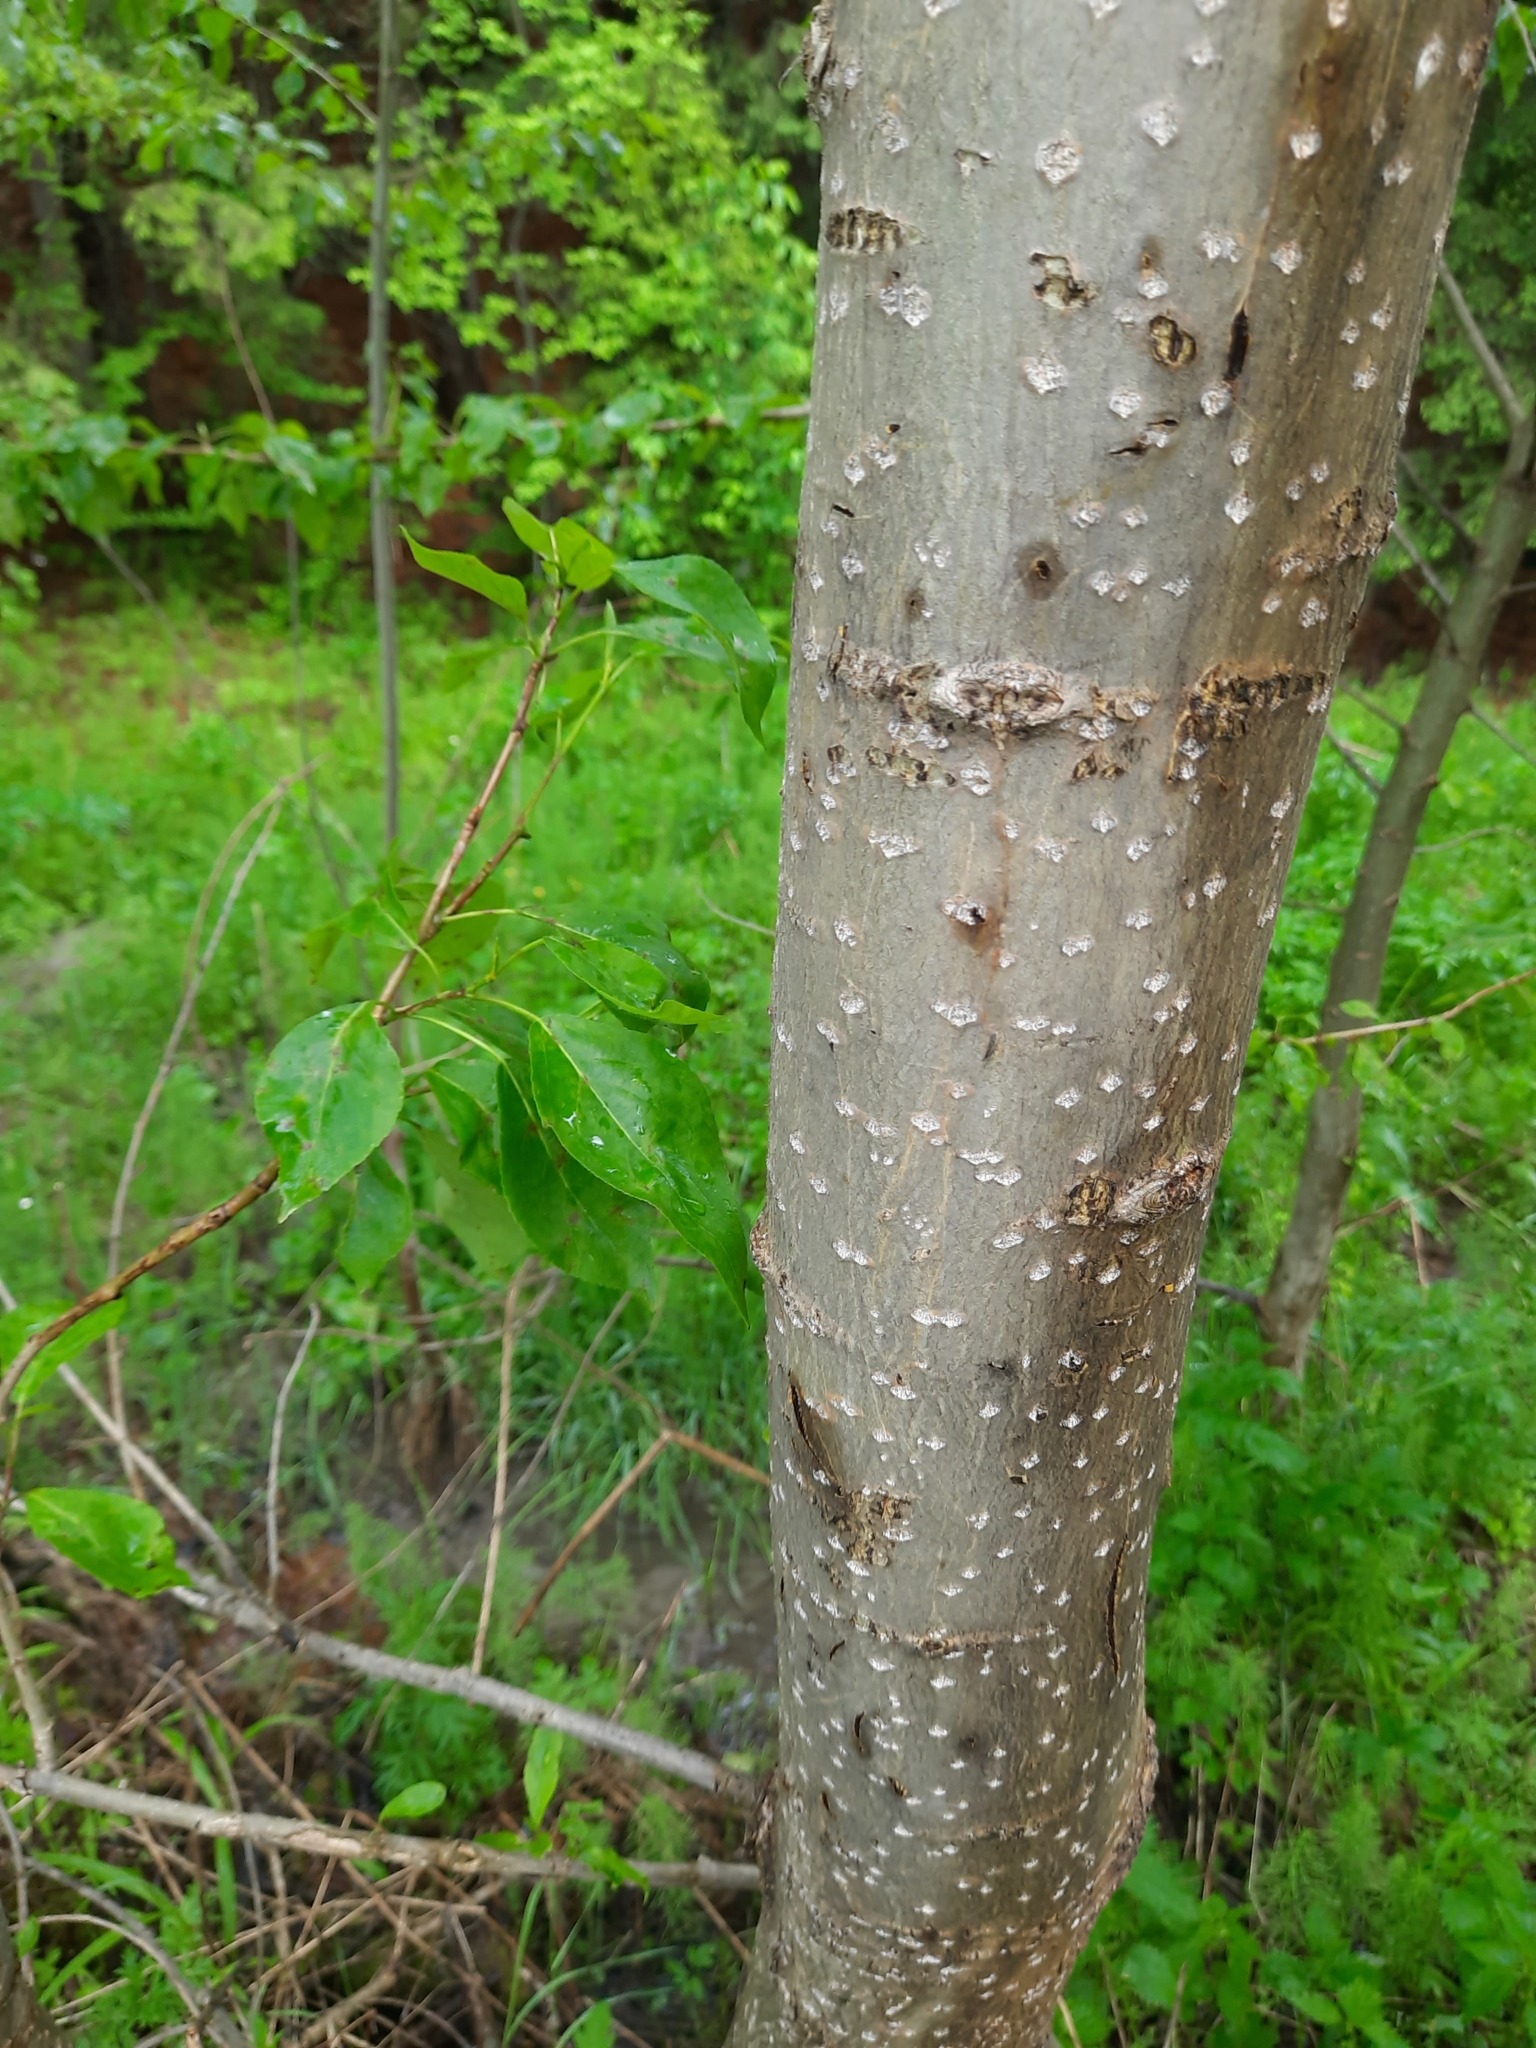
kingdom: Plantae
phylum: Tracheophyta
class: Magnoliopsida
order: Rosales
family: Rosaceae
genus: Sorbus
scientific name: Sorbus aucuparia
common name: Rowan
